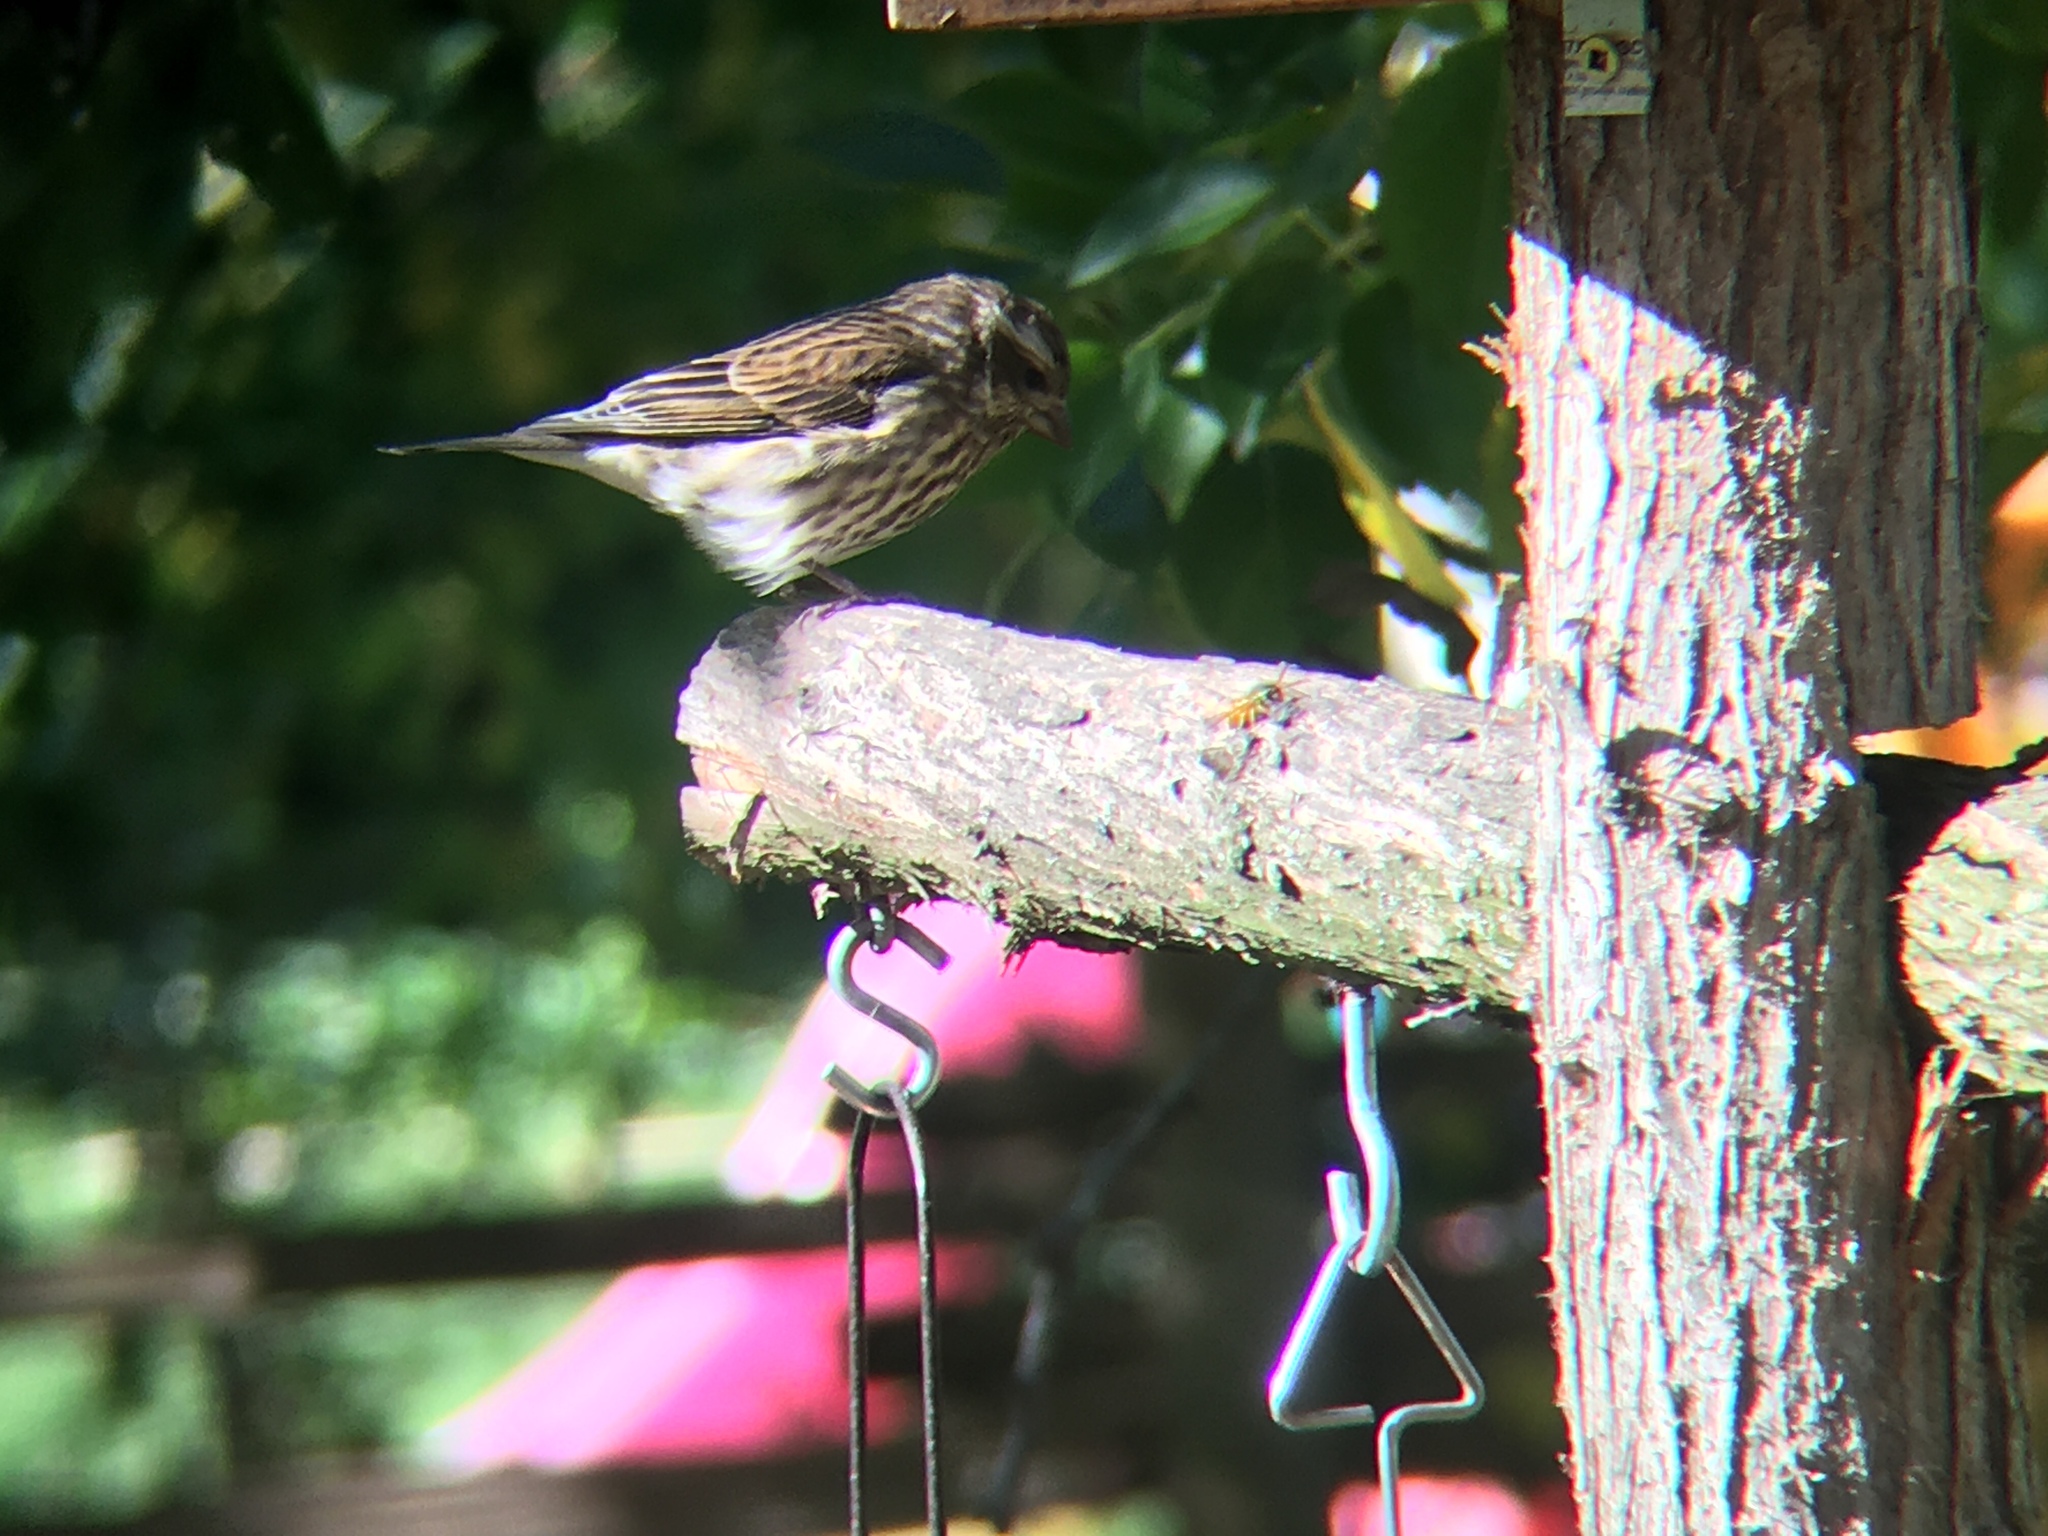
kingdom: Animalia
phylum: Chordata
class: Aves
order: Passeriformes
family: Fringillidae
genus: Haemorhous
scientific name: Haemorhous purpureus
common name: Purple finch
